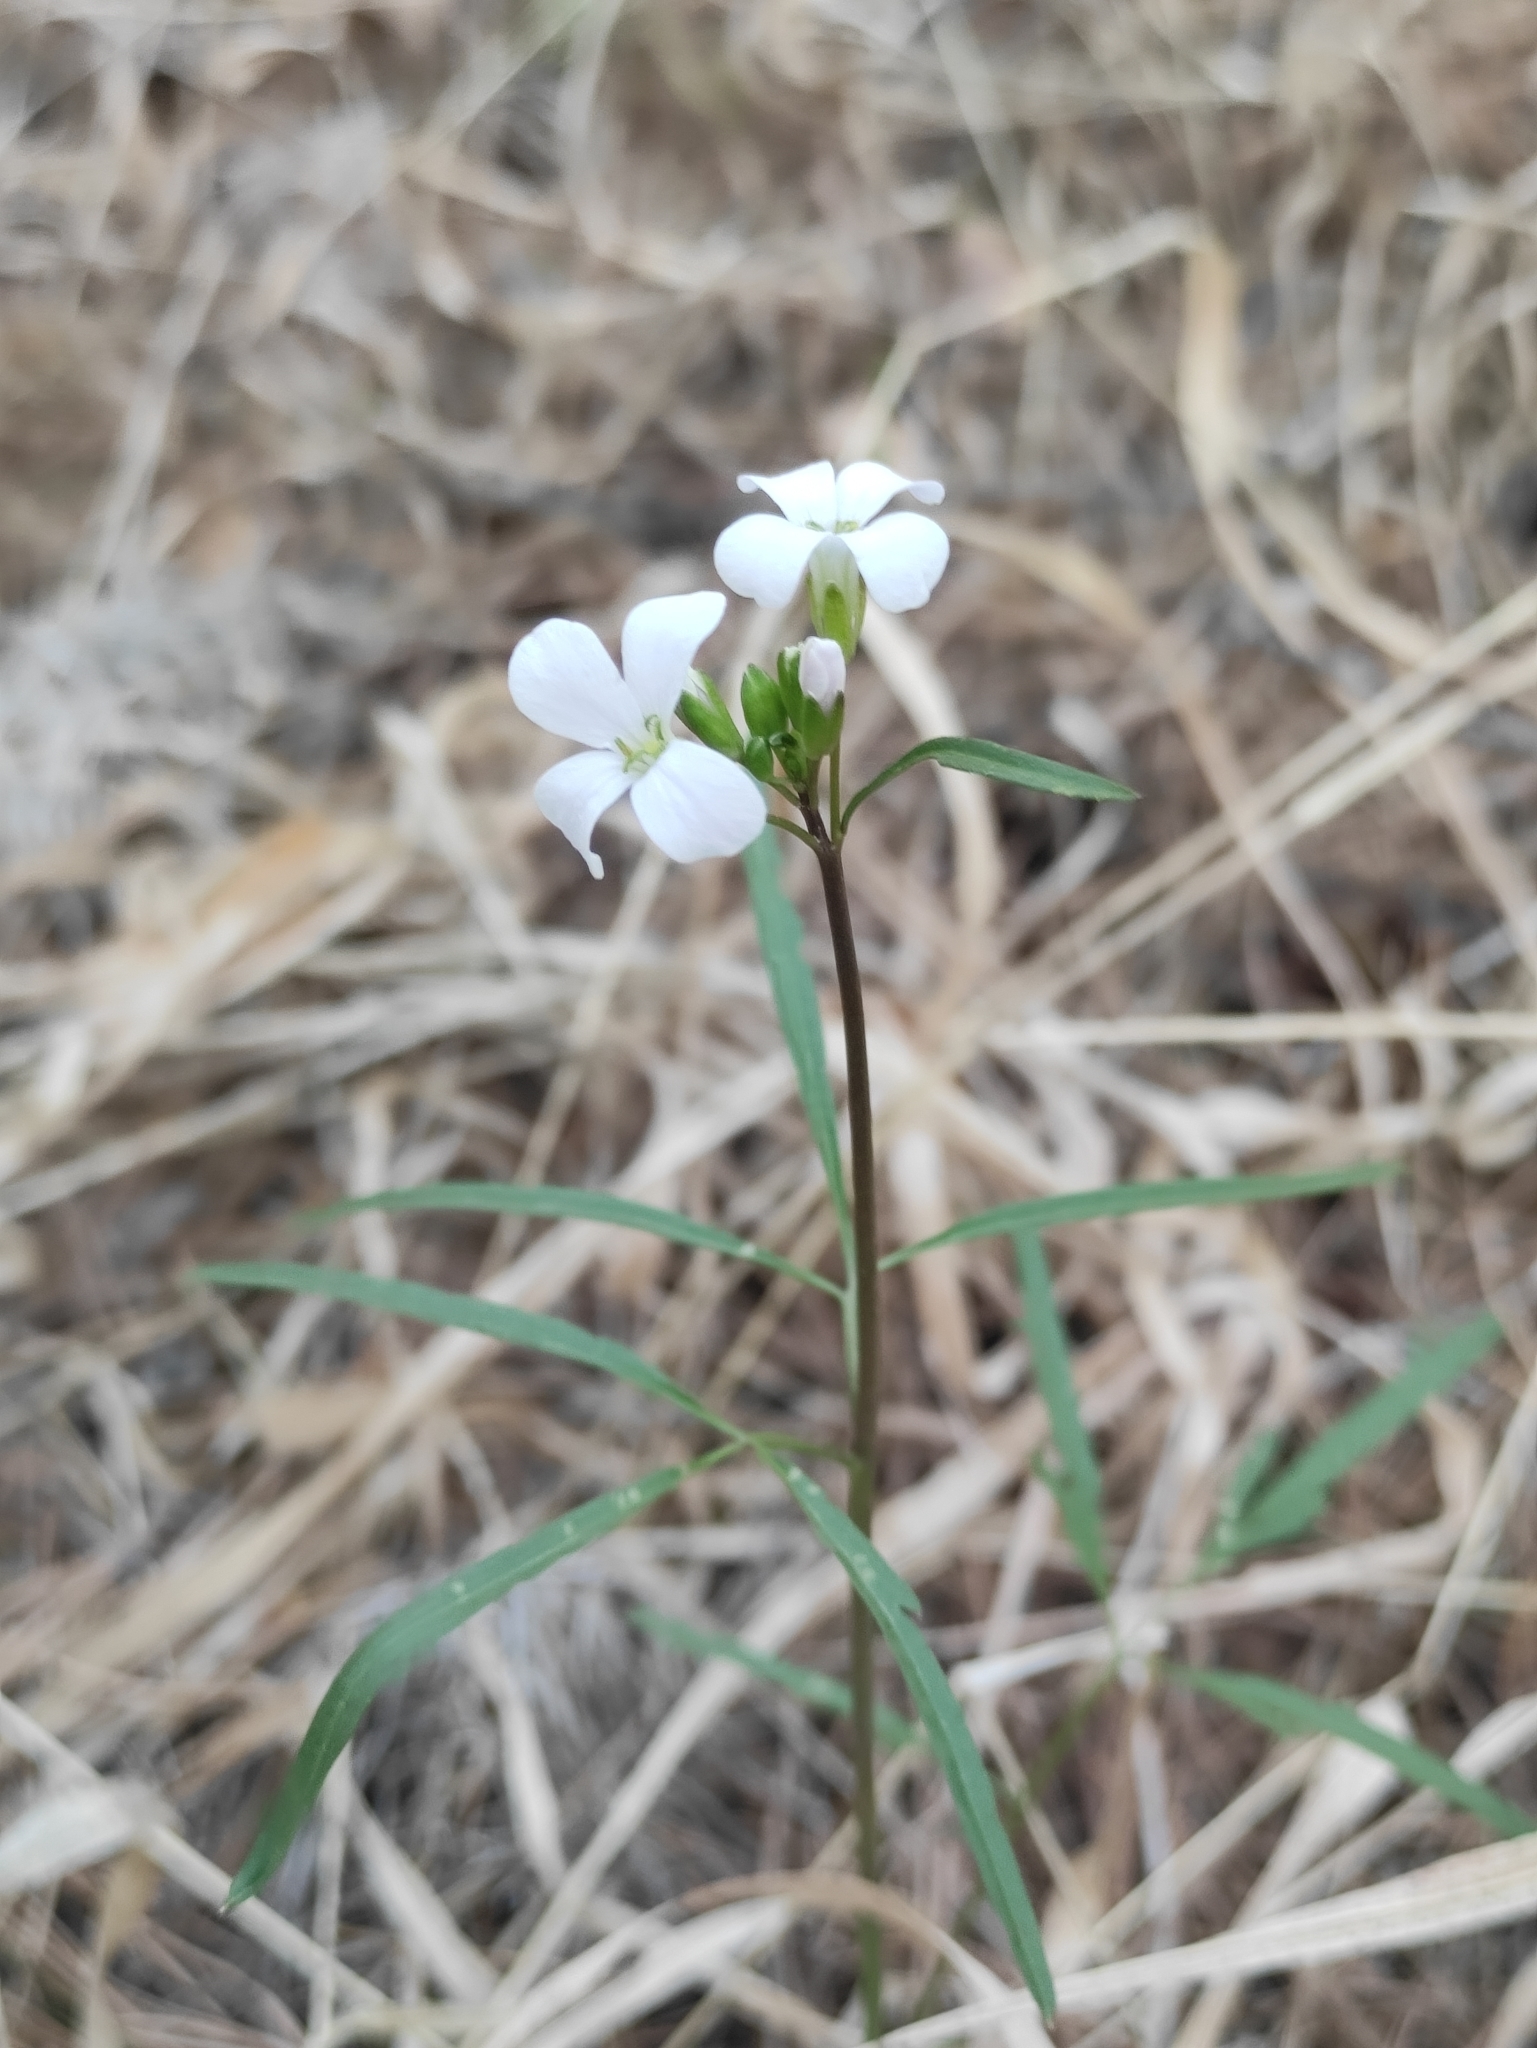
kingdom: Plantae
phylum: Tracheophyta
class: Magnoliopsida
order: Brassicales
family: Brassicaceae
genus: Cardamine
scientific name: Cardamine trifida
